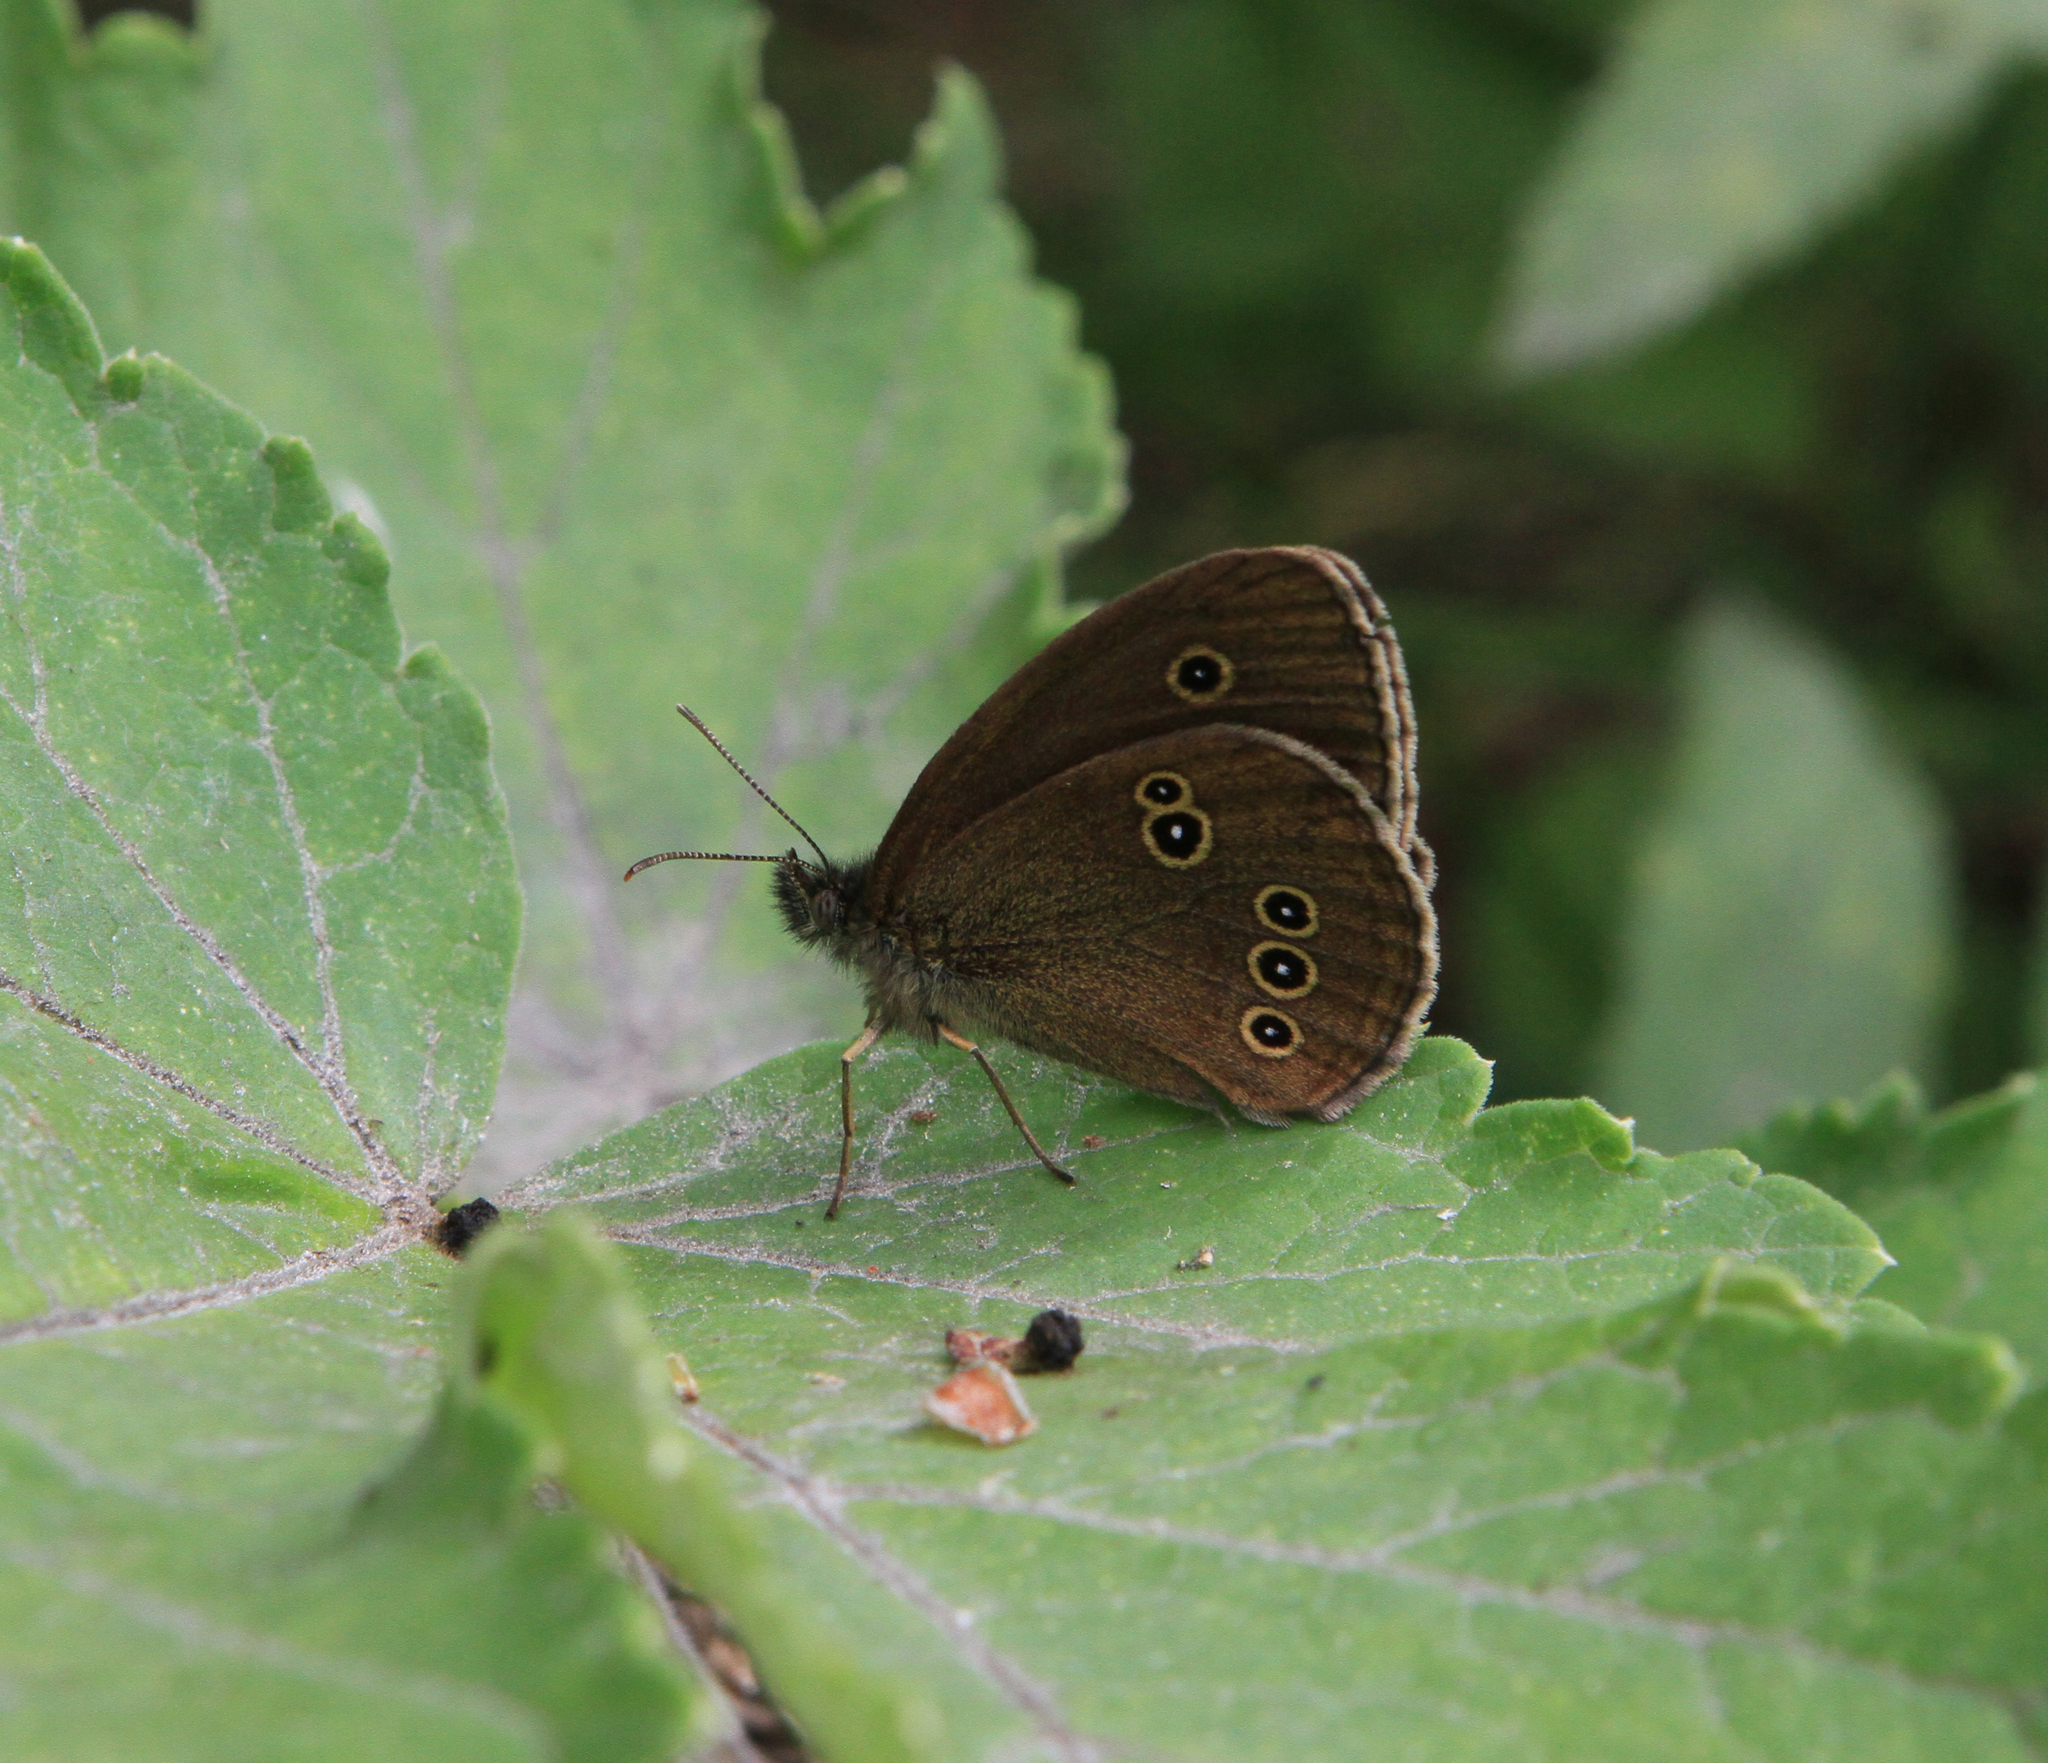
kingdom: Animalia
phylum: Arthropoda
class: Insecta
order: Lepidoptera
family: Nymphalidae
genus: Aphantopus
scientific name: Aphantopus hyperantus
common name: Ringlet
